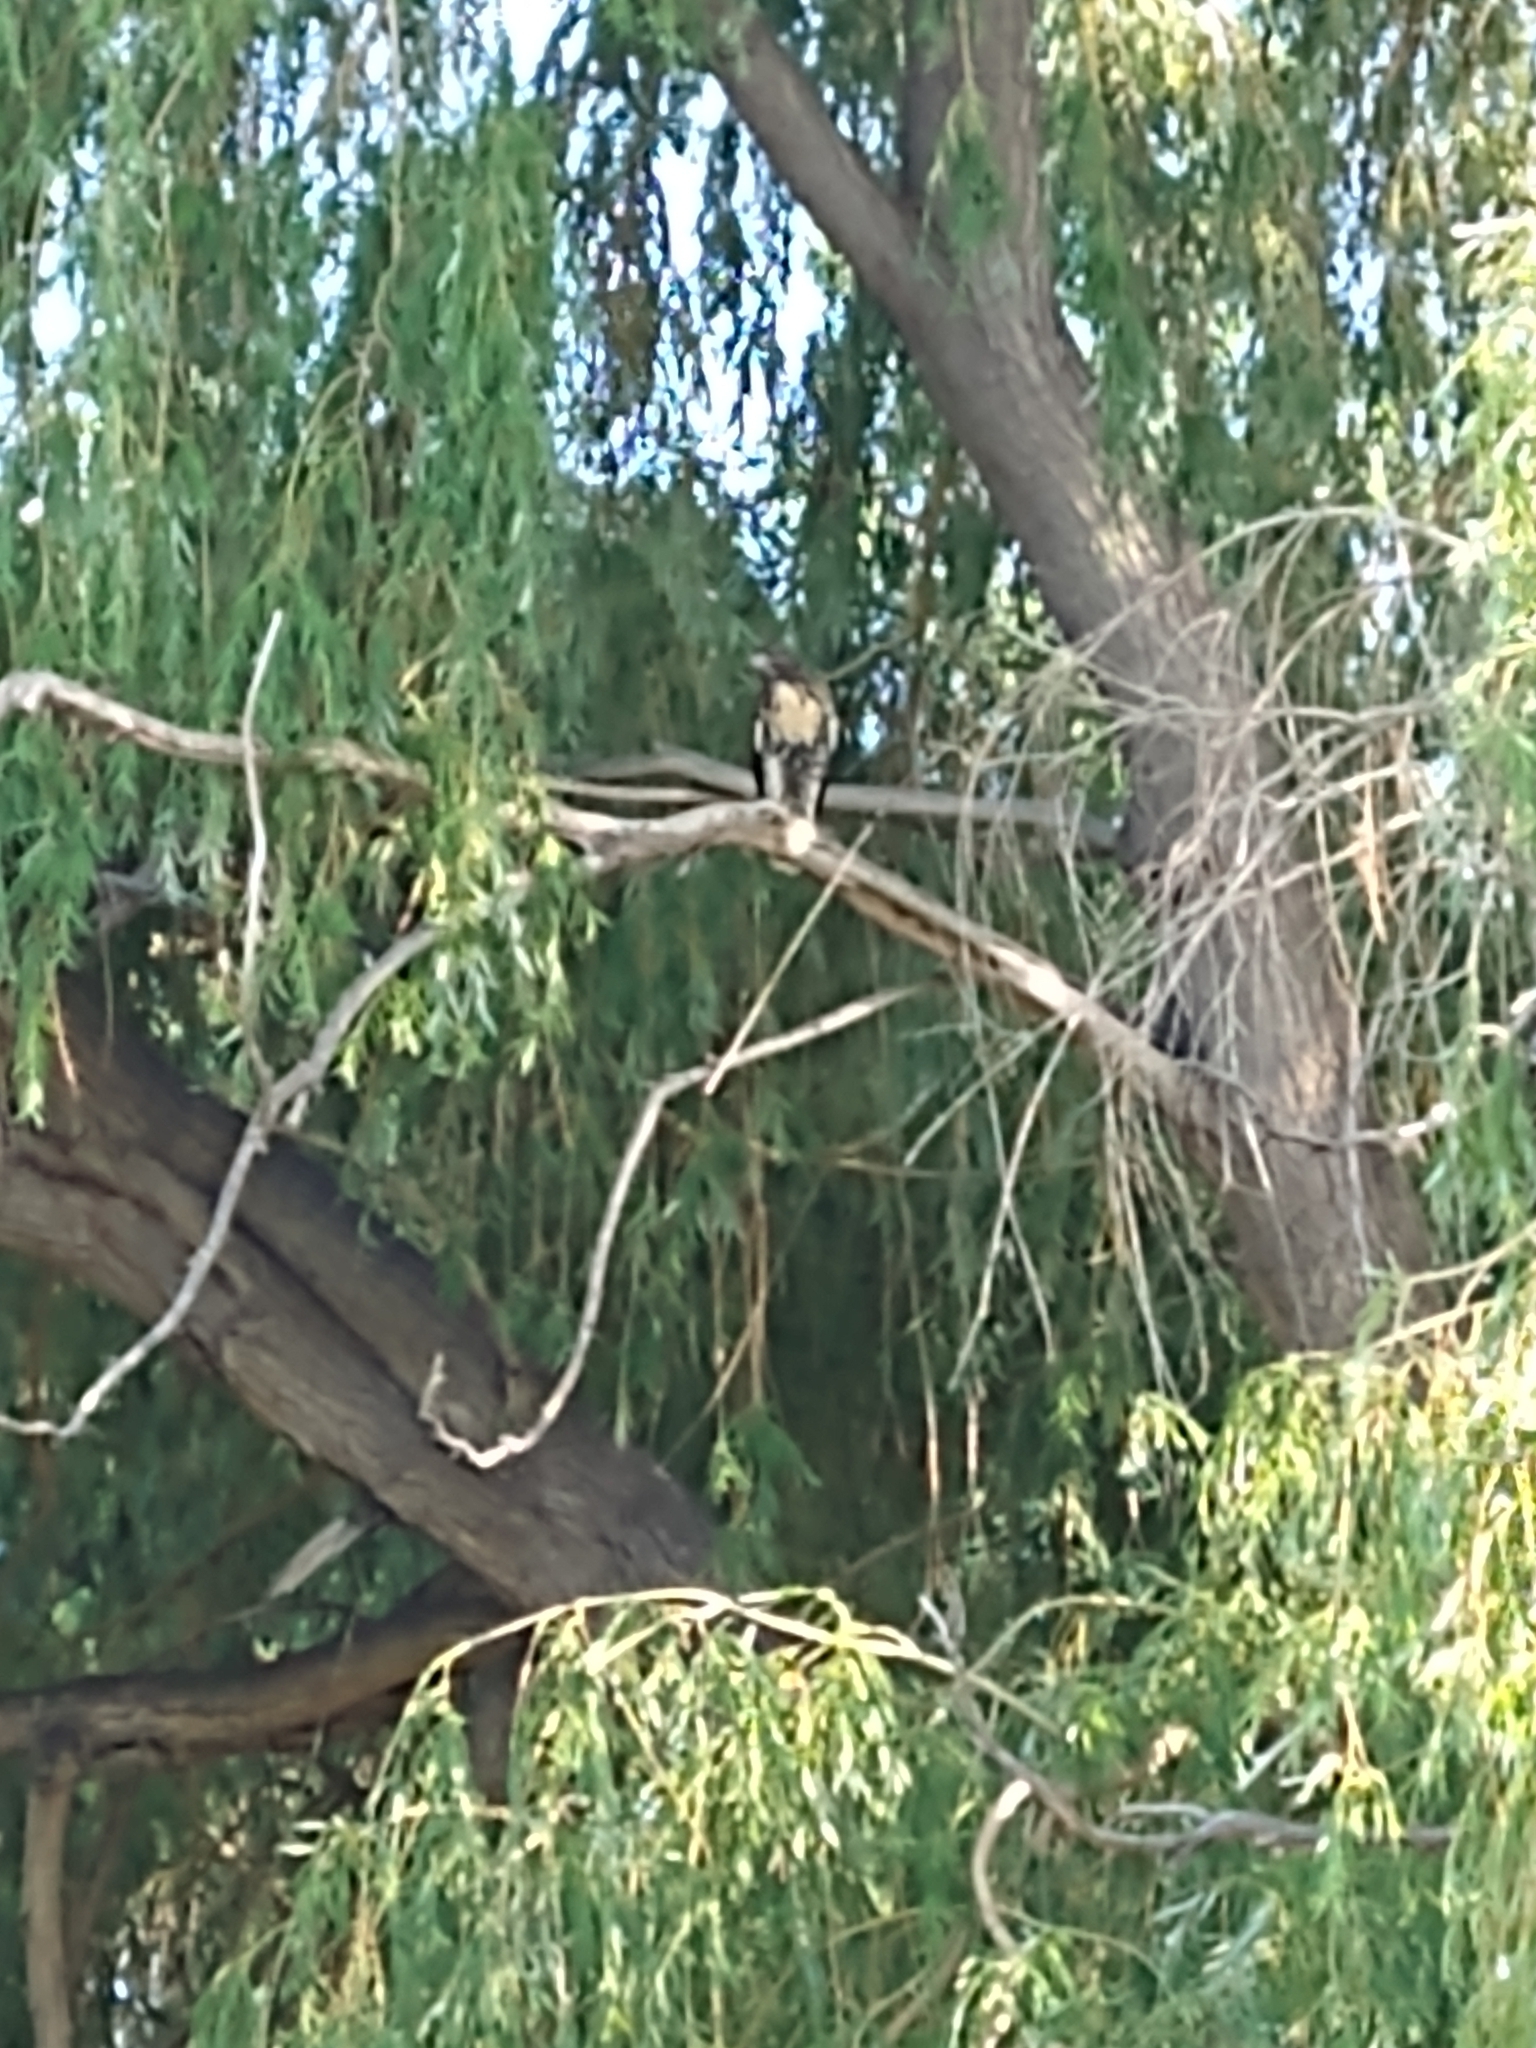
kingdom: Animalia
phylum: Chordata
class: Aves
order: Accipitriformes
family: Accipitridae
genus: Buteo
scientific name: Buteo jamaicensis
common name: Red-tailed hawk
